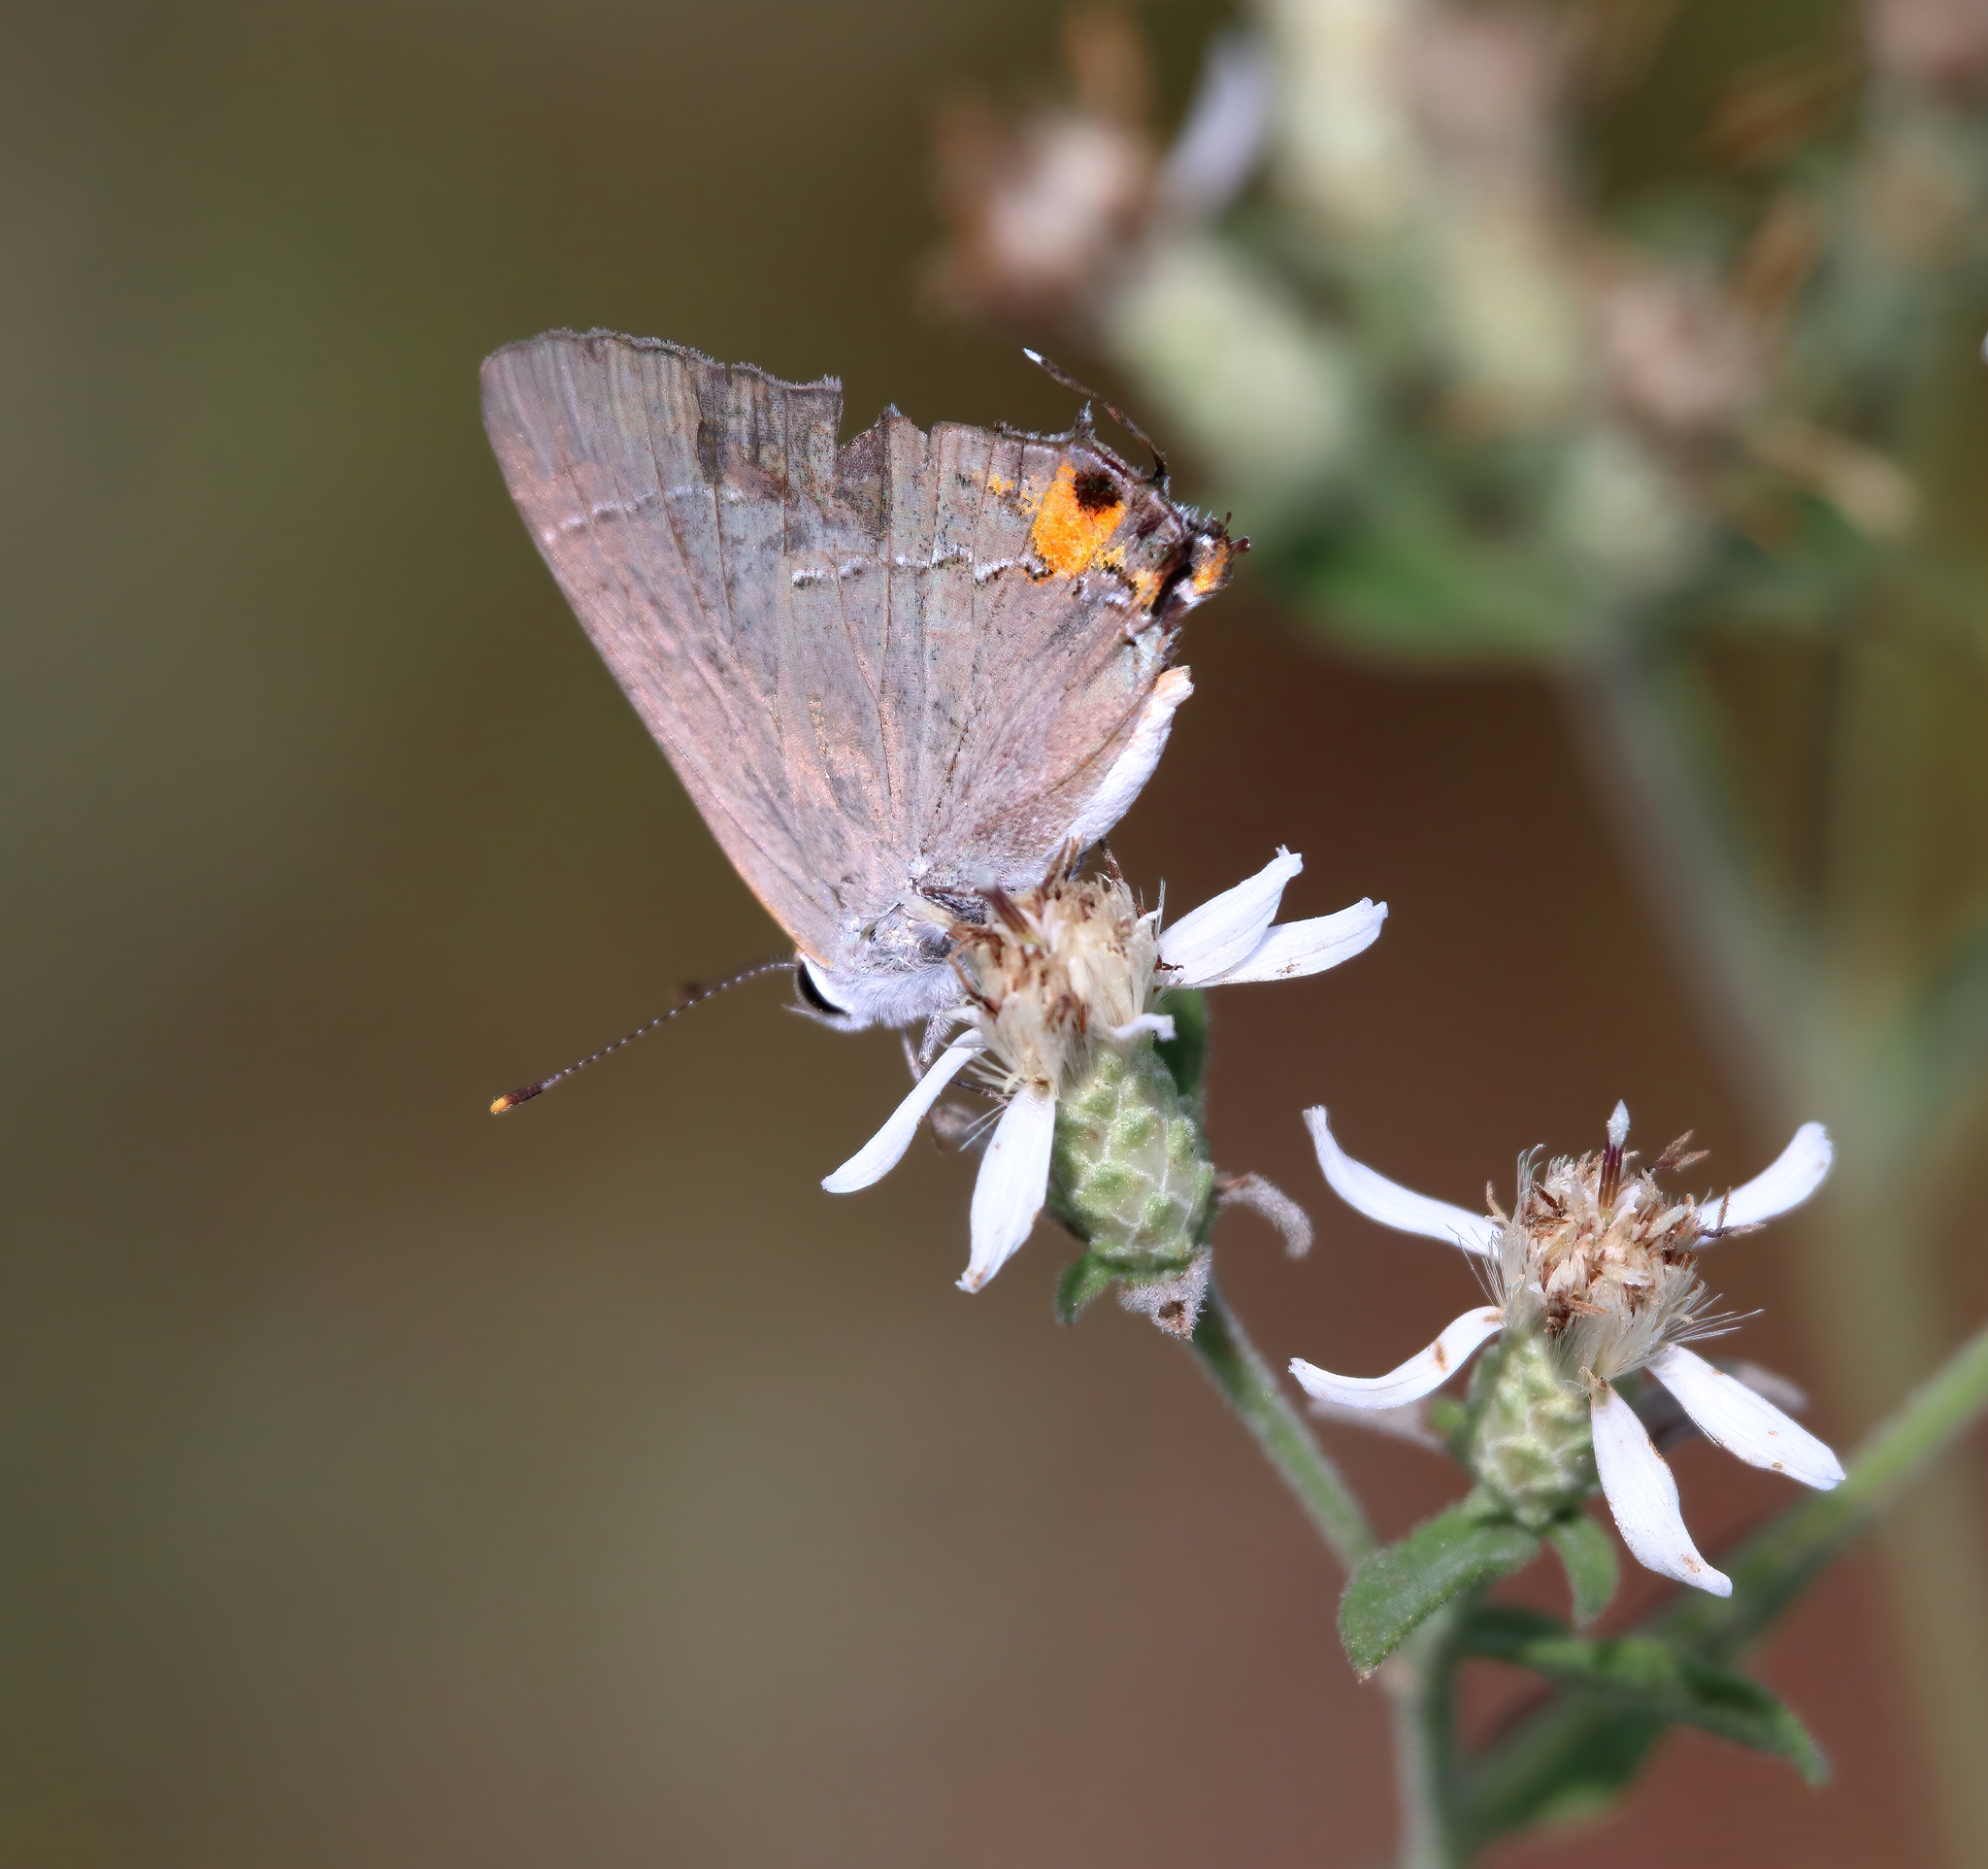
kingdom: Animalia
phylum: Arthropoda
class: Insecta
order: Lepidoptera
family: Lycaenidae
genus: Strymon
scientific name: Strymon melinus
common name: Gray hairstreak
